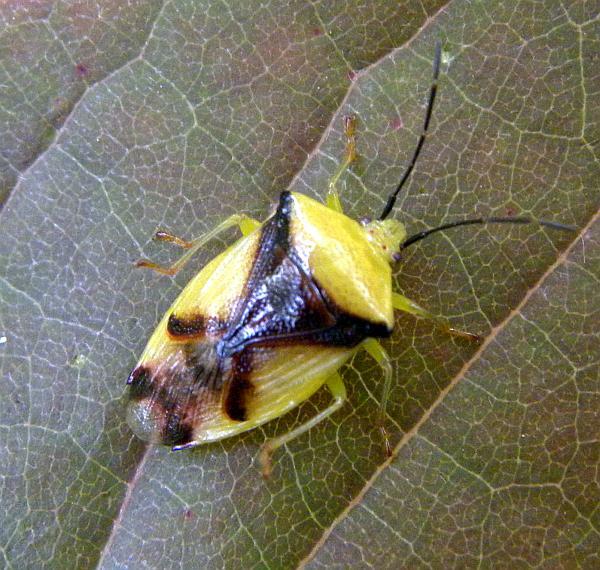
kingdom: Animalia
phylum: Arthropoda
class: Insecta
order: Hemiptera
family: Acanthosomatidae
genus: Elasmostethus
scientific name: Elasmostethus atricornis
